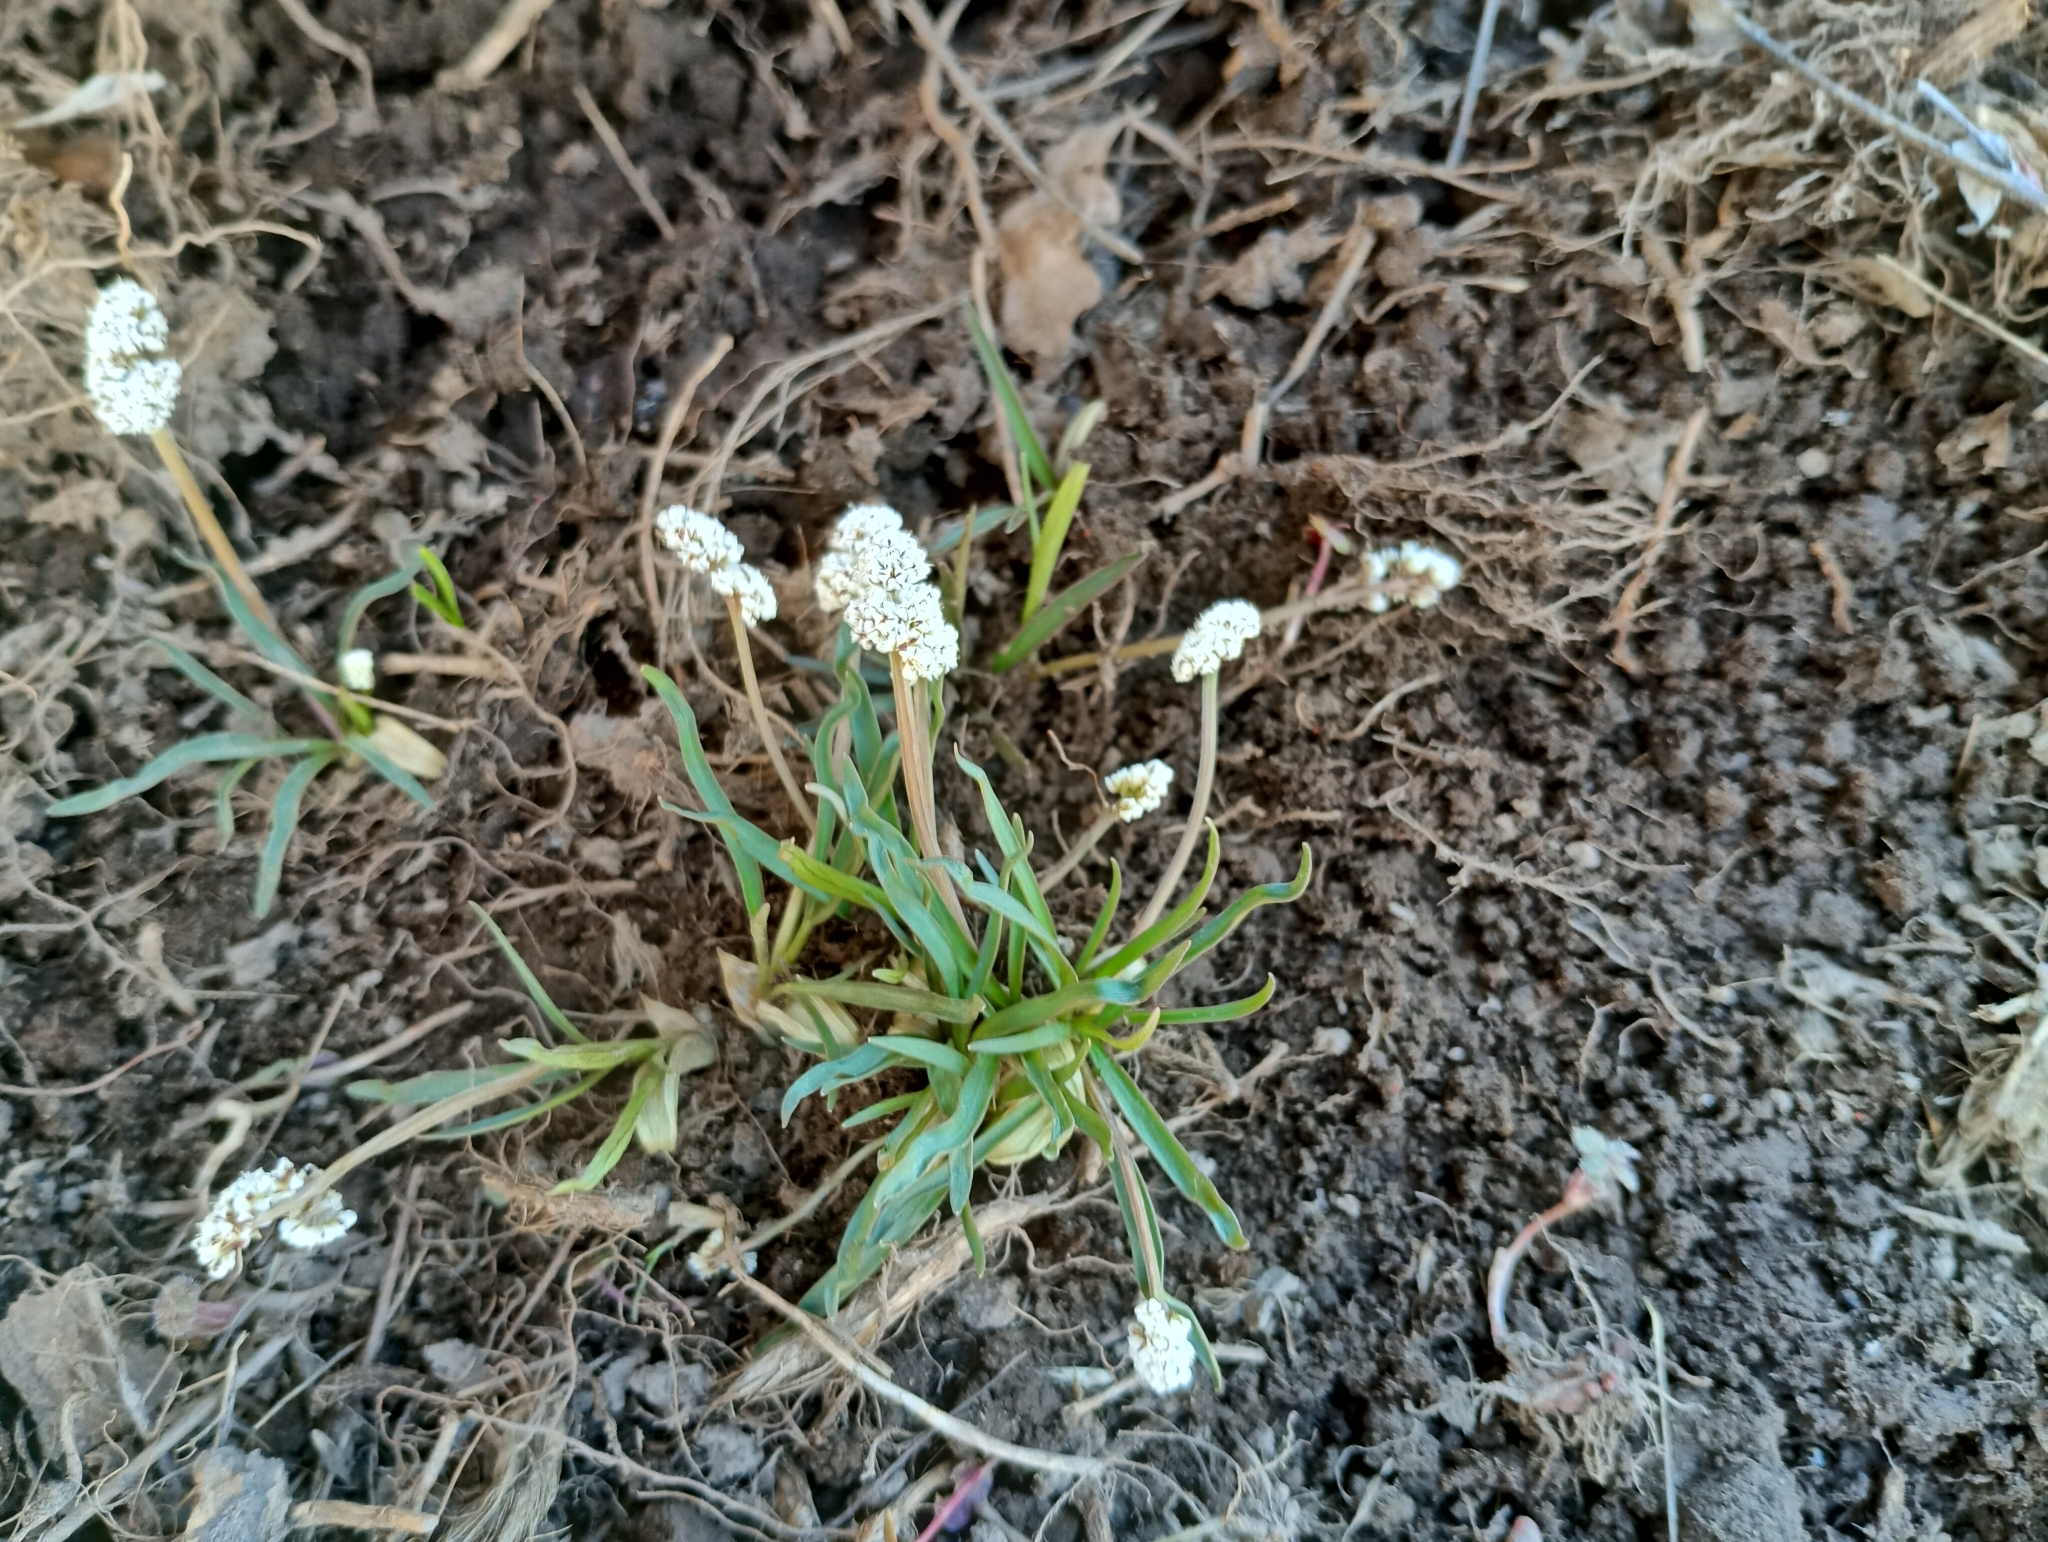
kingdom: Plantae
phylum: Tracheophyta
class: Magnoliopsida
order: Apiales
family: Apiaceae
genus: Lomatium
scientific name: Lomatium linearifolium
